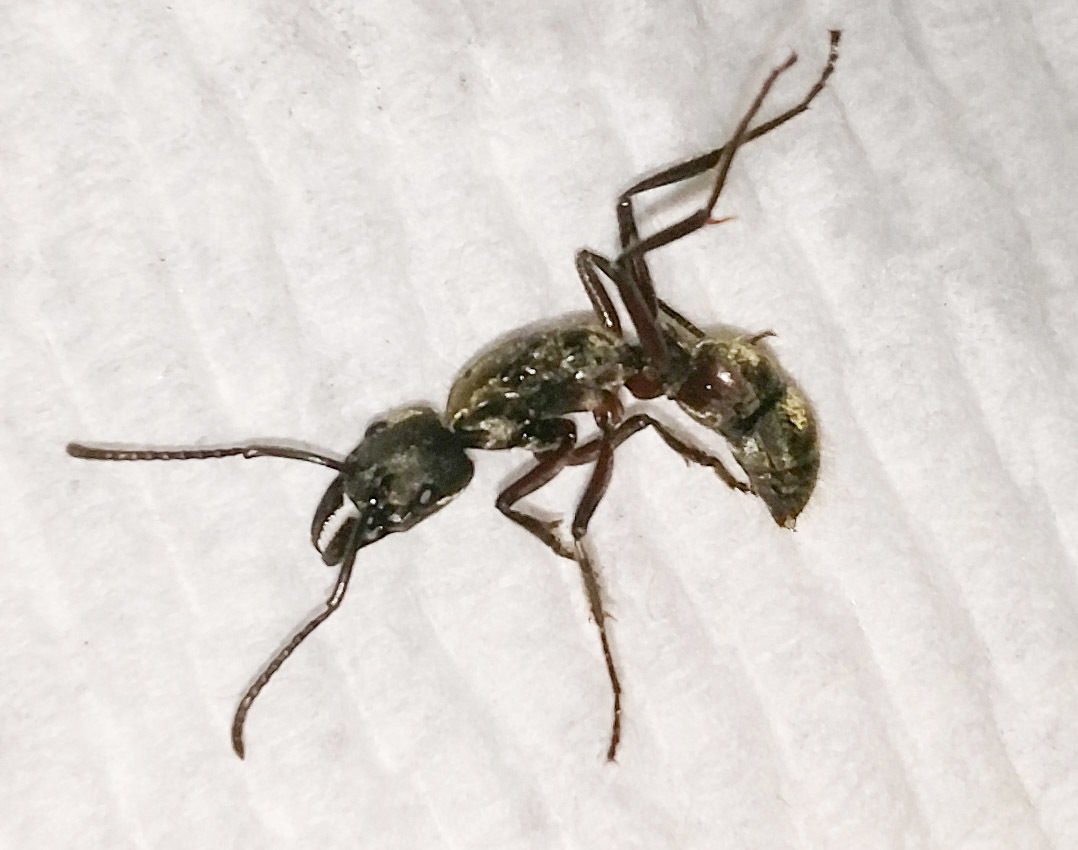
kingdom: Animalia
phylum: Arthropoda
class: Insecta
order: Hymenoptera
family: Formicidae
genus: Pachycondyla
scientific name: Pachycondyla villosa
